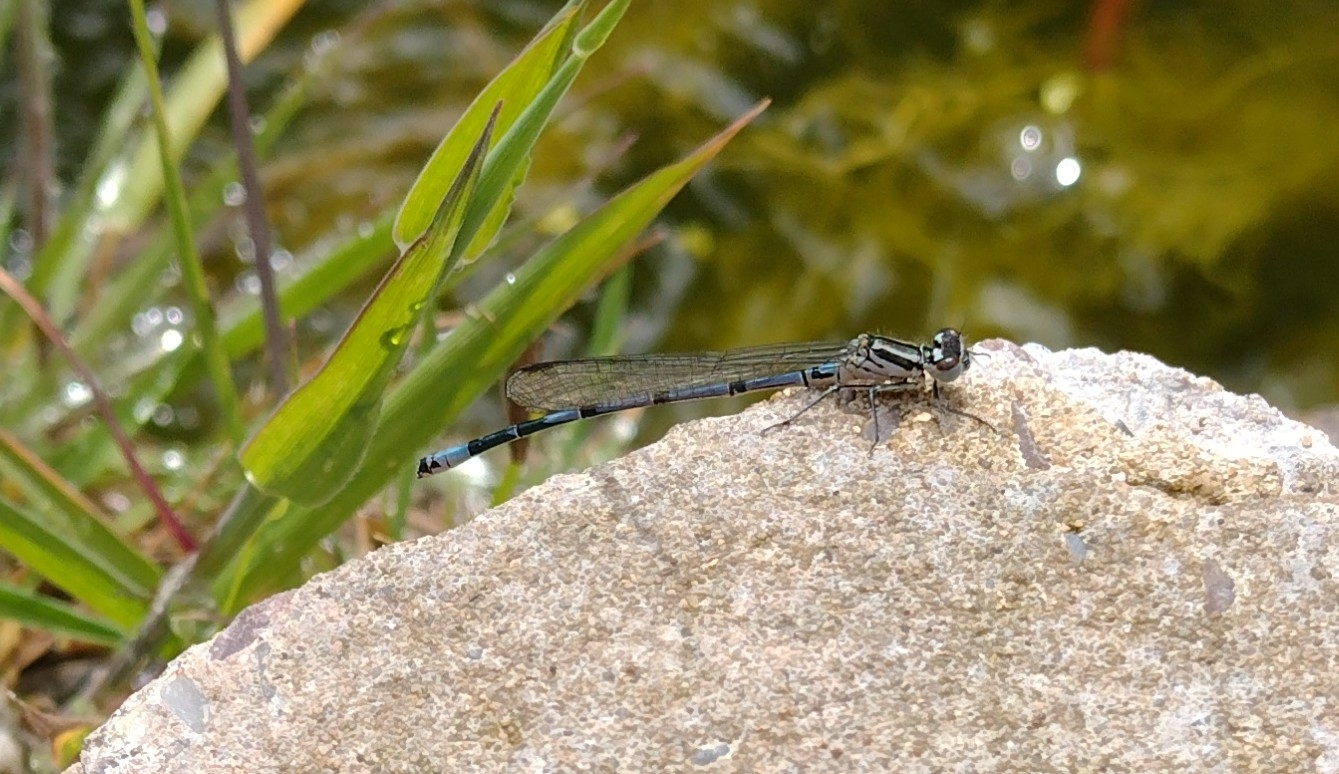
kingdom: Animalia
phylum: Arthropoda
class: Insecta
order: Odonata
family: Coenagrionidae
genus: Coenagrion
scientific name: Coenagrion puella
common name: Azure damselfly
